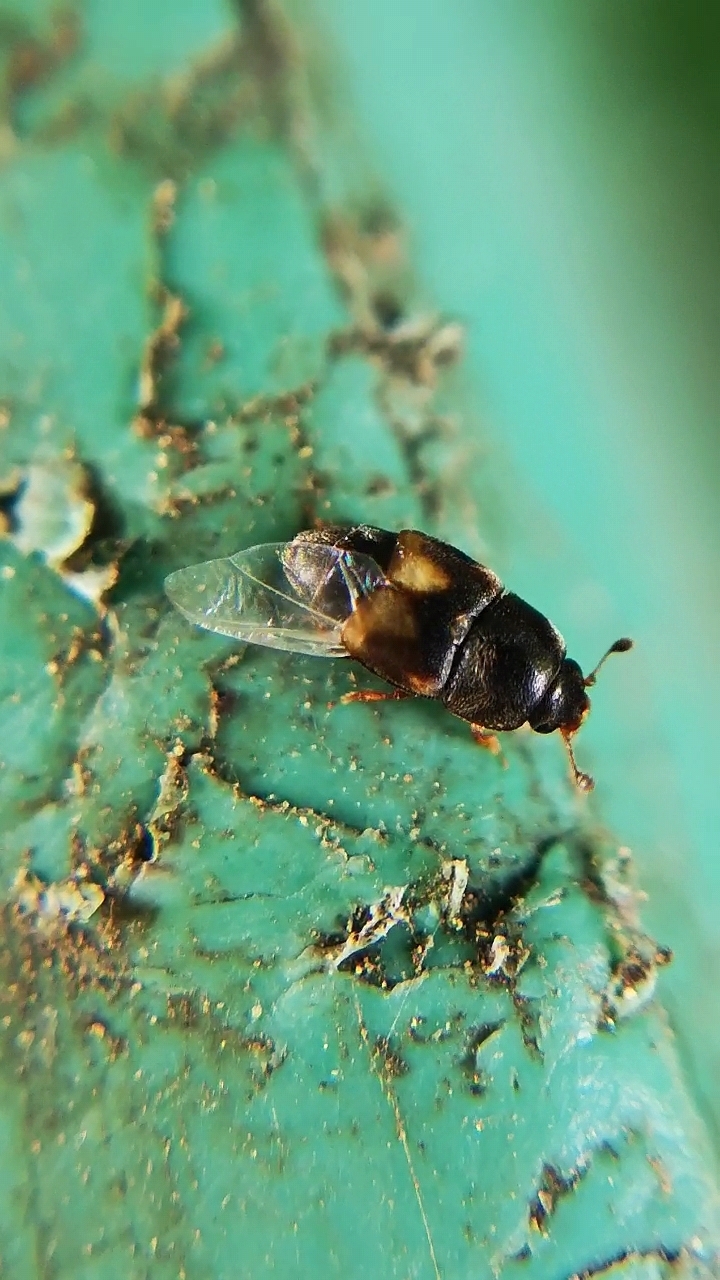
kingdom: Animalia
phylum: Arthropoda
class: Insecta
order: Coleoptera
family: Nitidulidae
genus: Carpophilus
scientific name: Carpophilus hemipterus
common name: Dried fruit beetle
